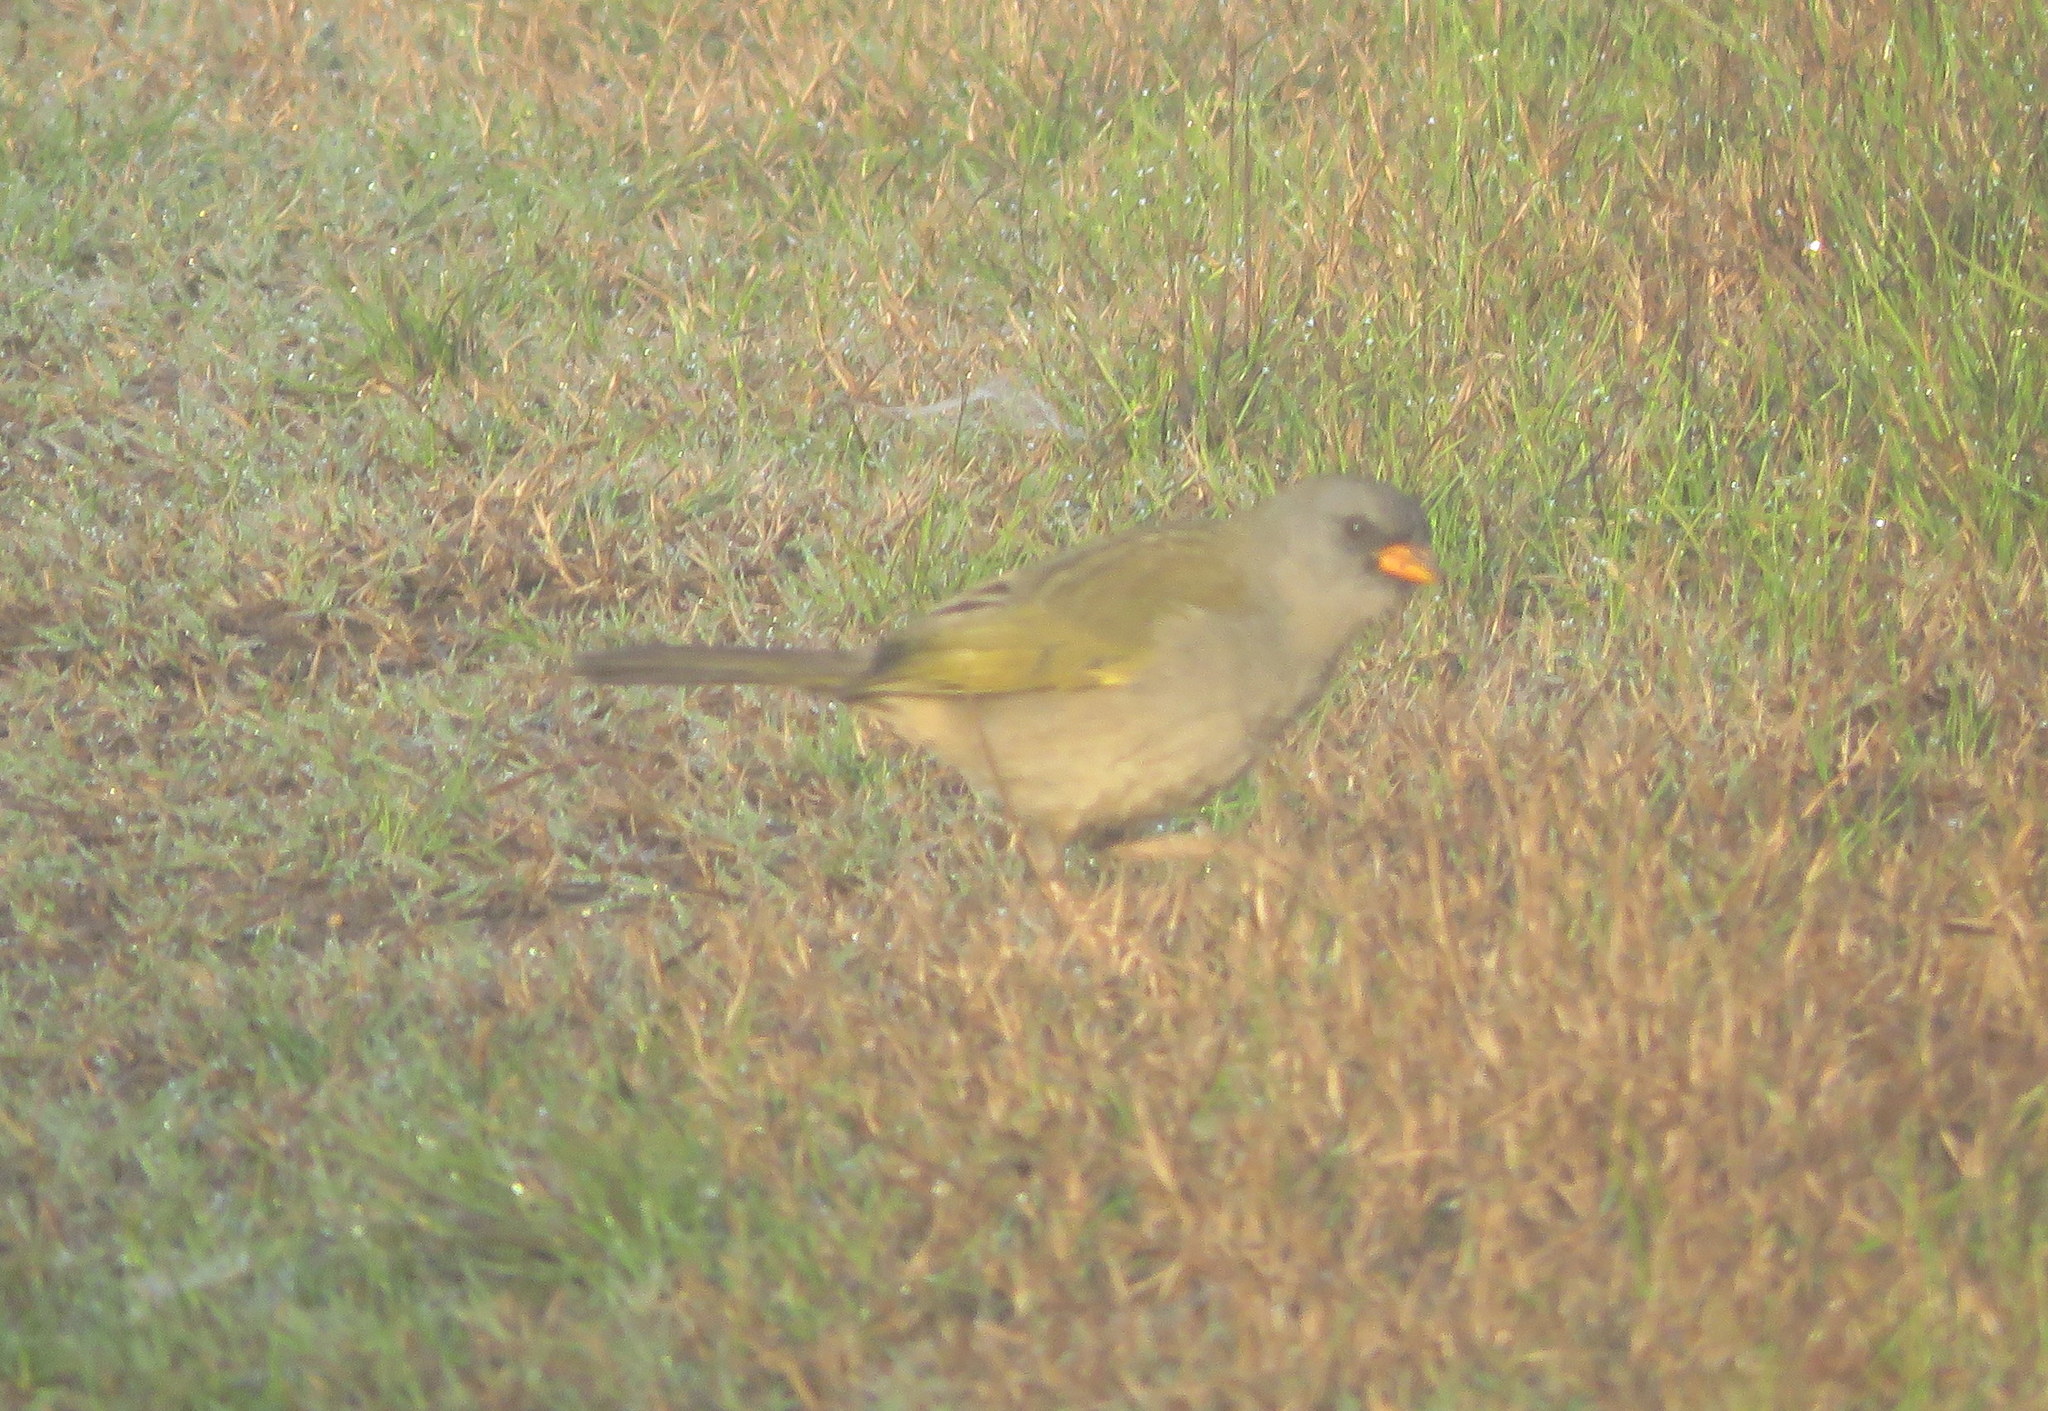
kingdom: Animalia
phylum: Chordata
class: Aves
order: Passeriformes
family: Thraupidae
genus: Embernagra
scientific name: Embernagra platensis
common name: Pampa finch
